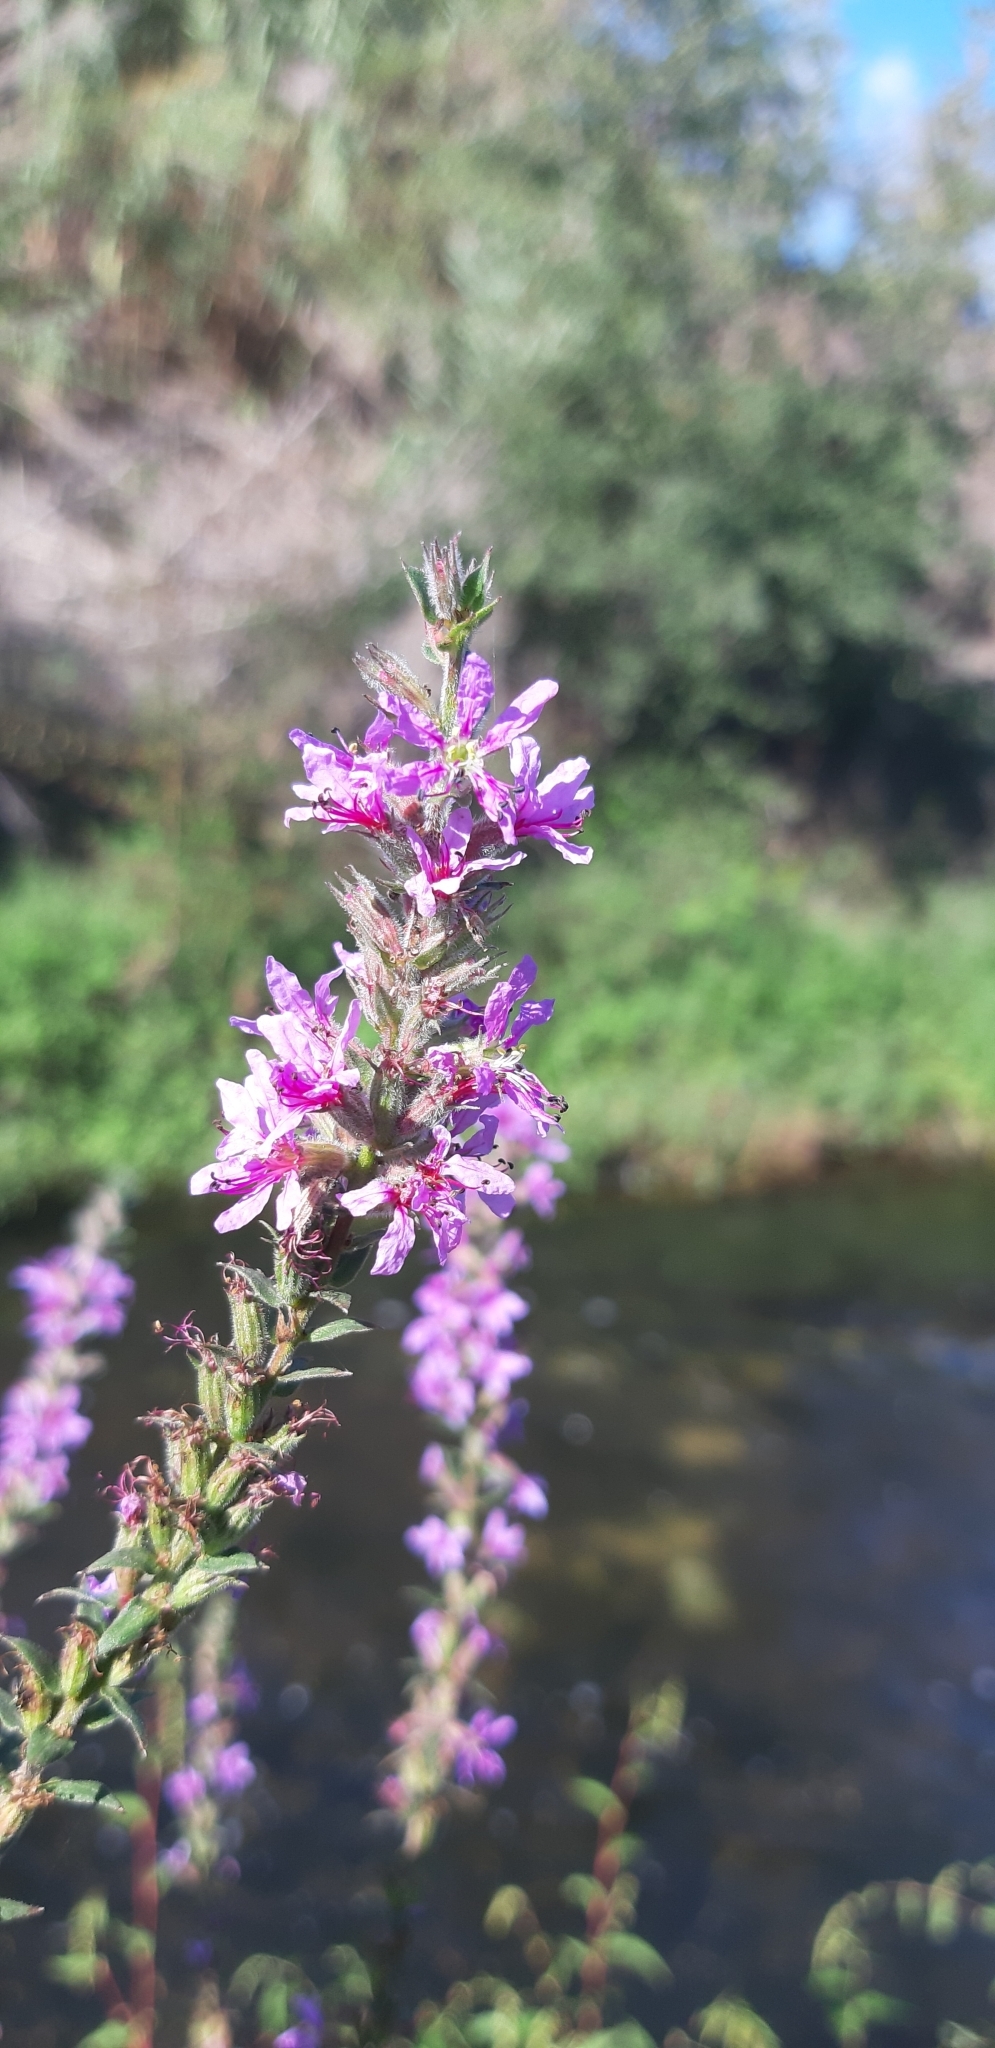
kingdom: Plantae
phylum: Tracheophyta
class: Magnoliopsida
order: Myrtales
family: Lythraceae
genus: Lythrum
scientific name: Lythrum salicaria
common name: Purple loosestrife
